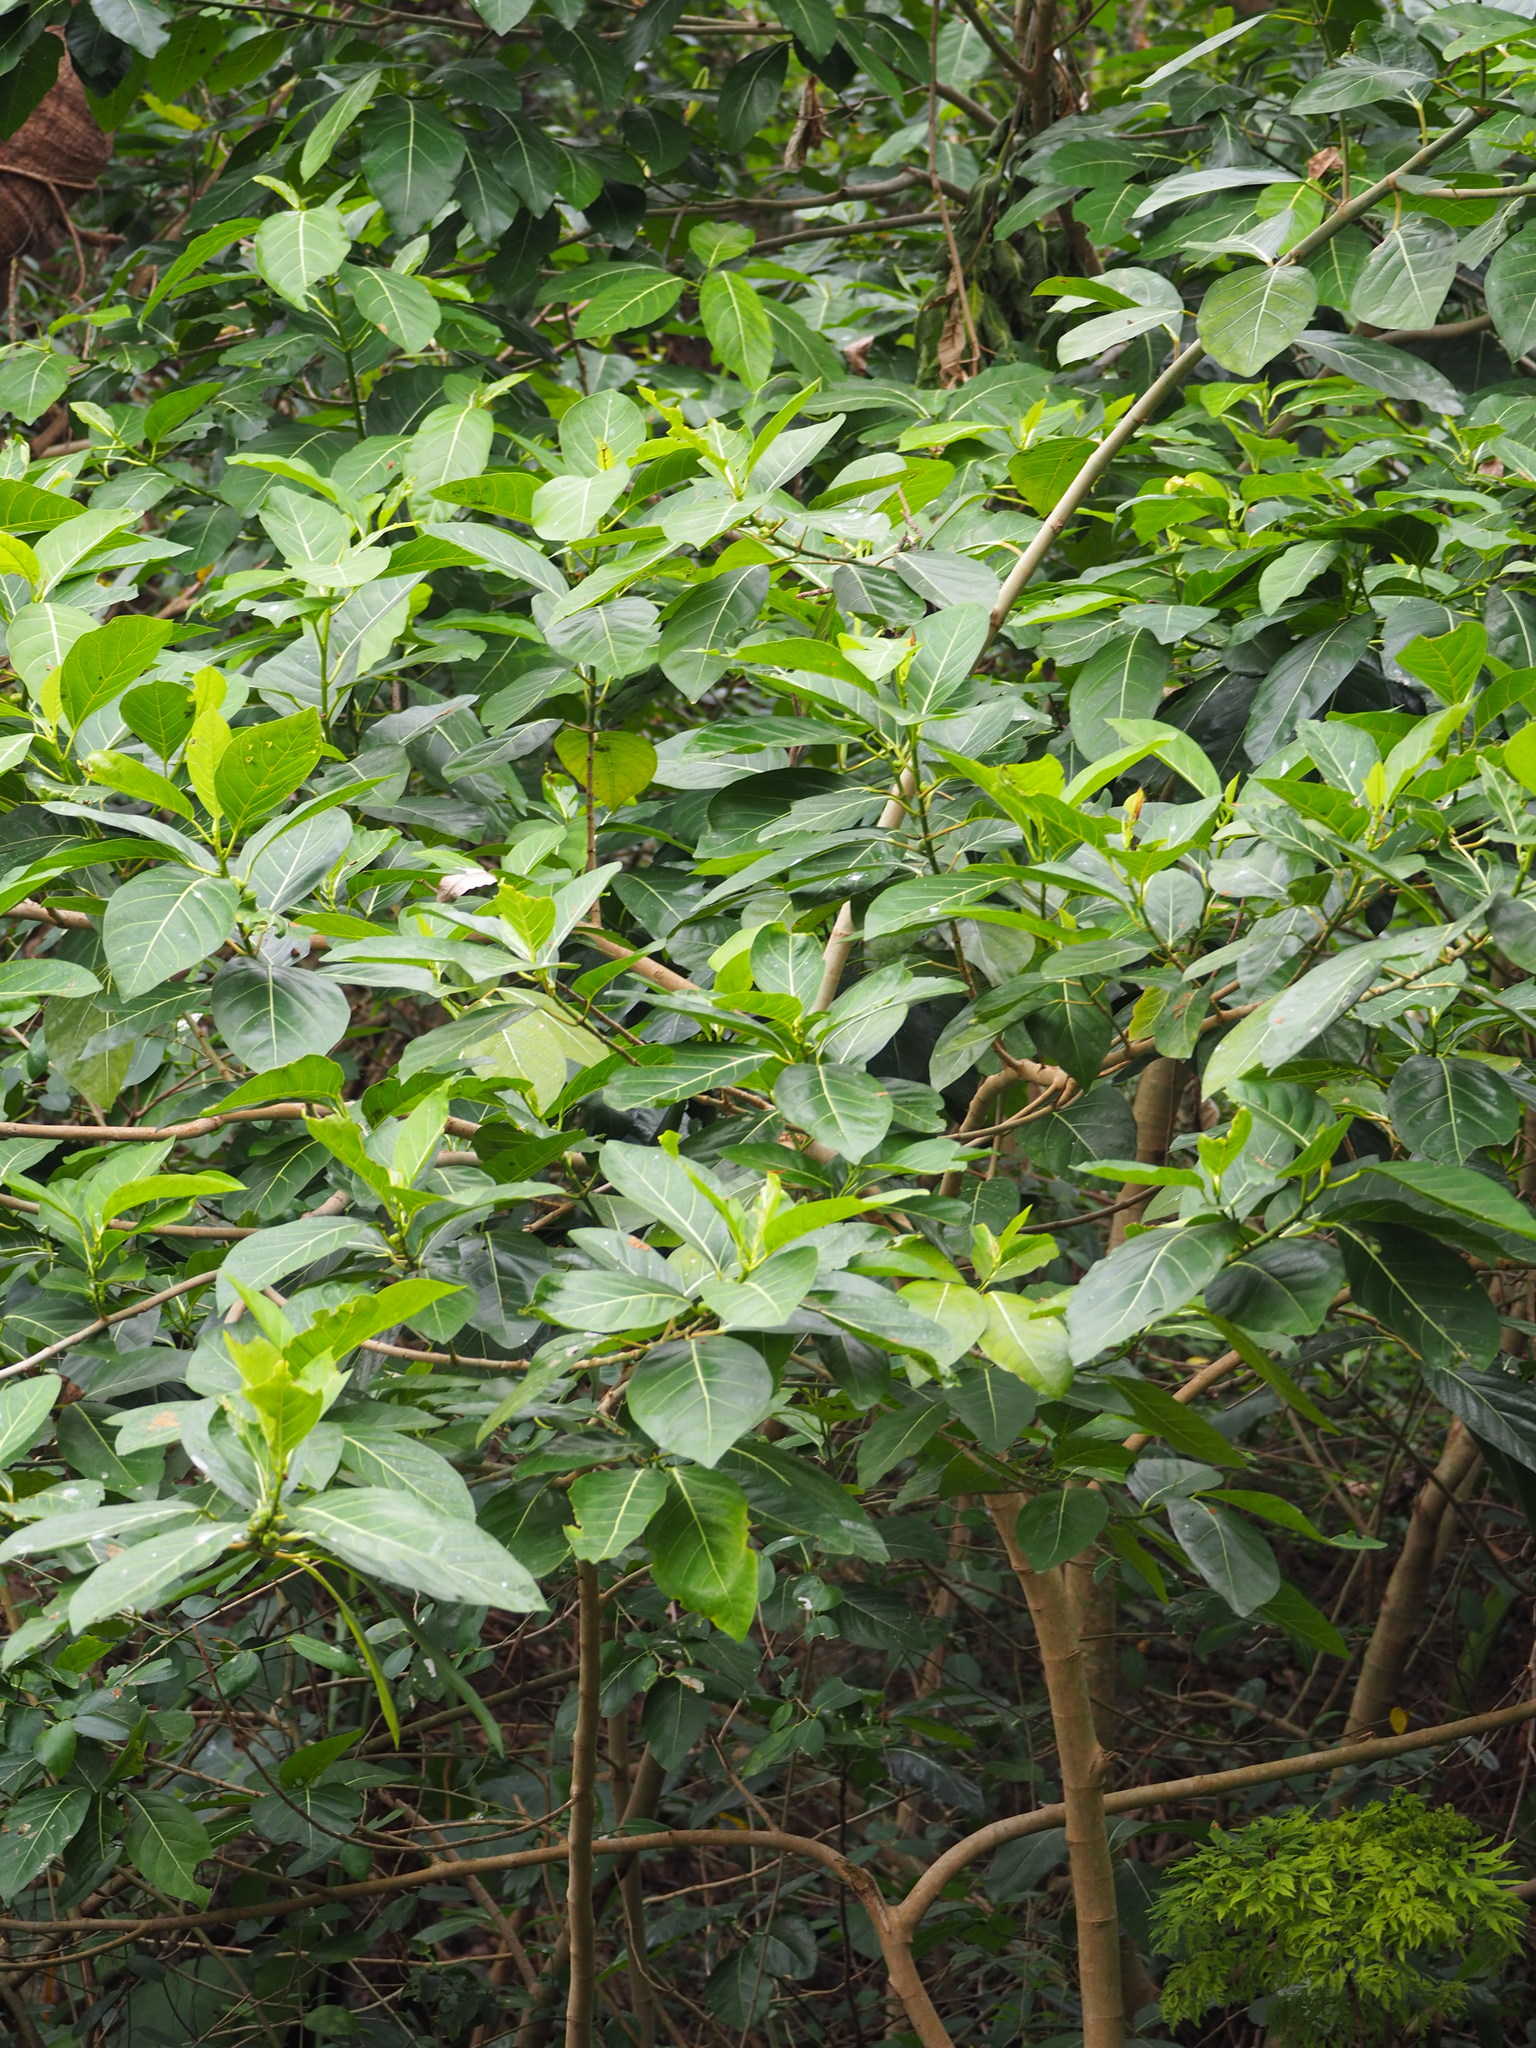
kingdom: Plantae
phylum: Tracheophyta
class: Magnoliopsida
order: Rosales
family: Moraceae
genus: Ficus
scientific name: Ficus septica
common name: Septic fig
